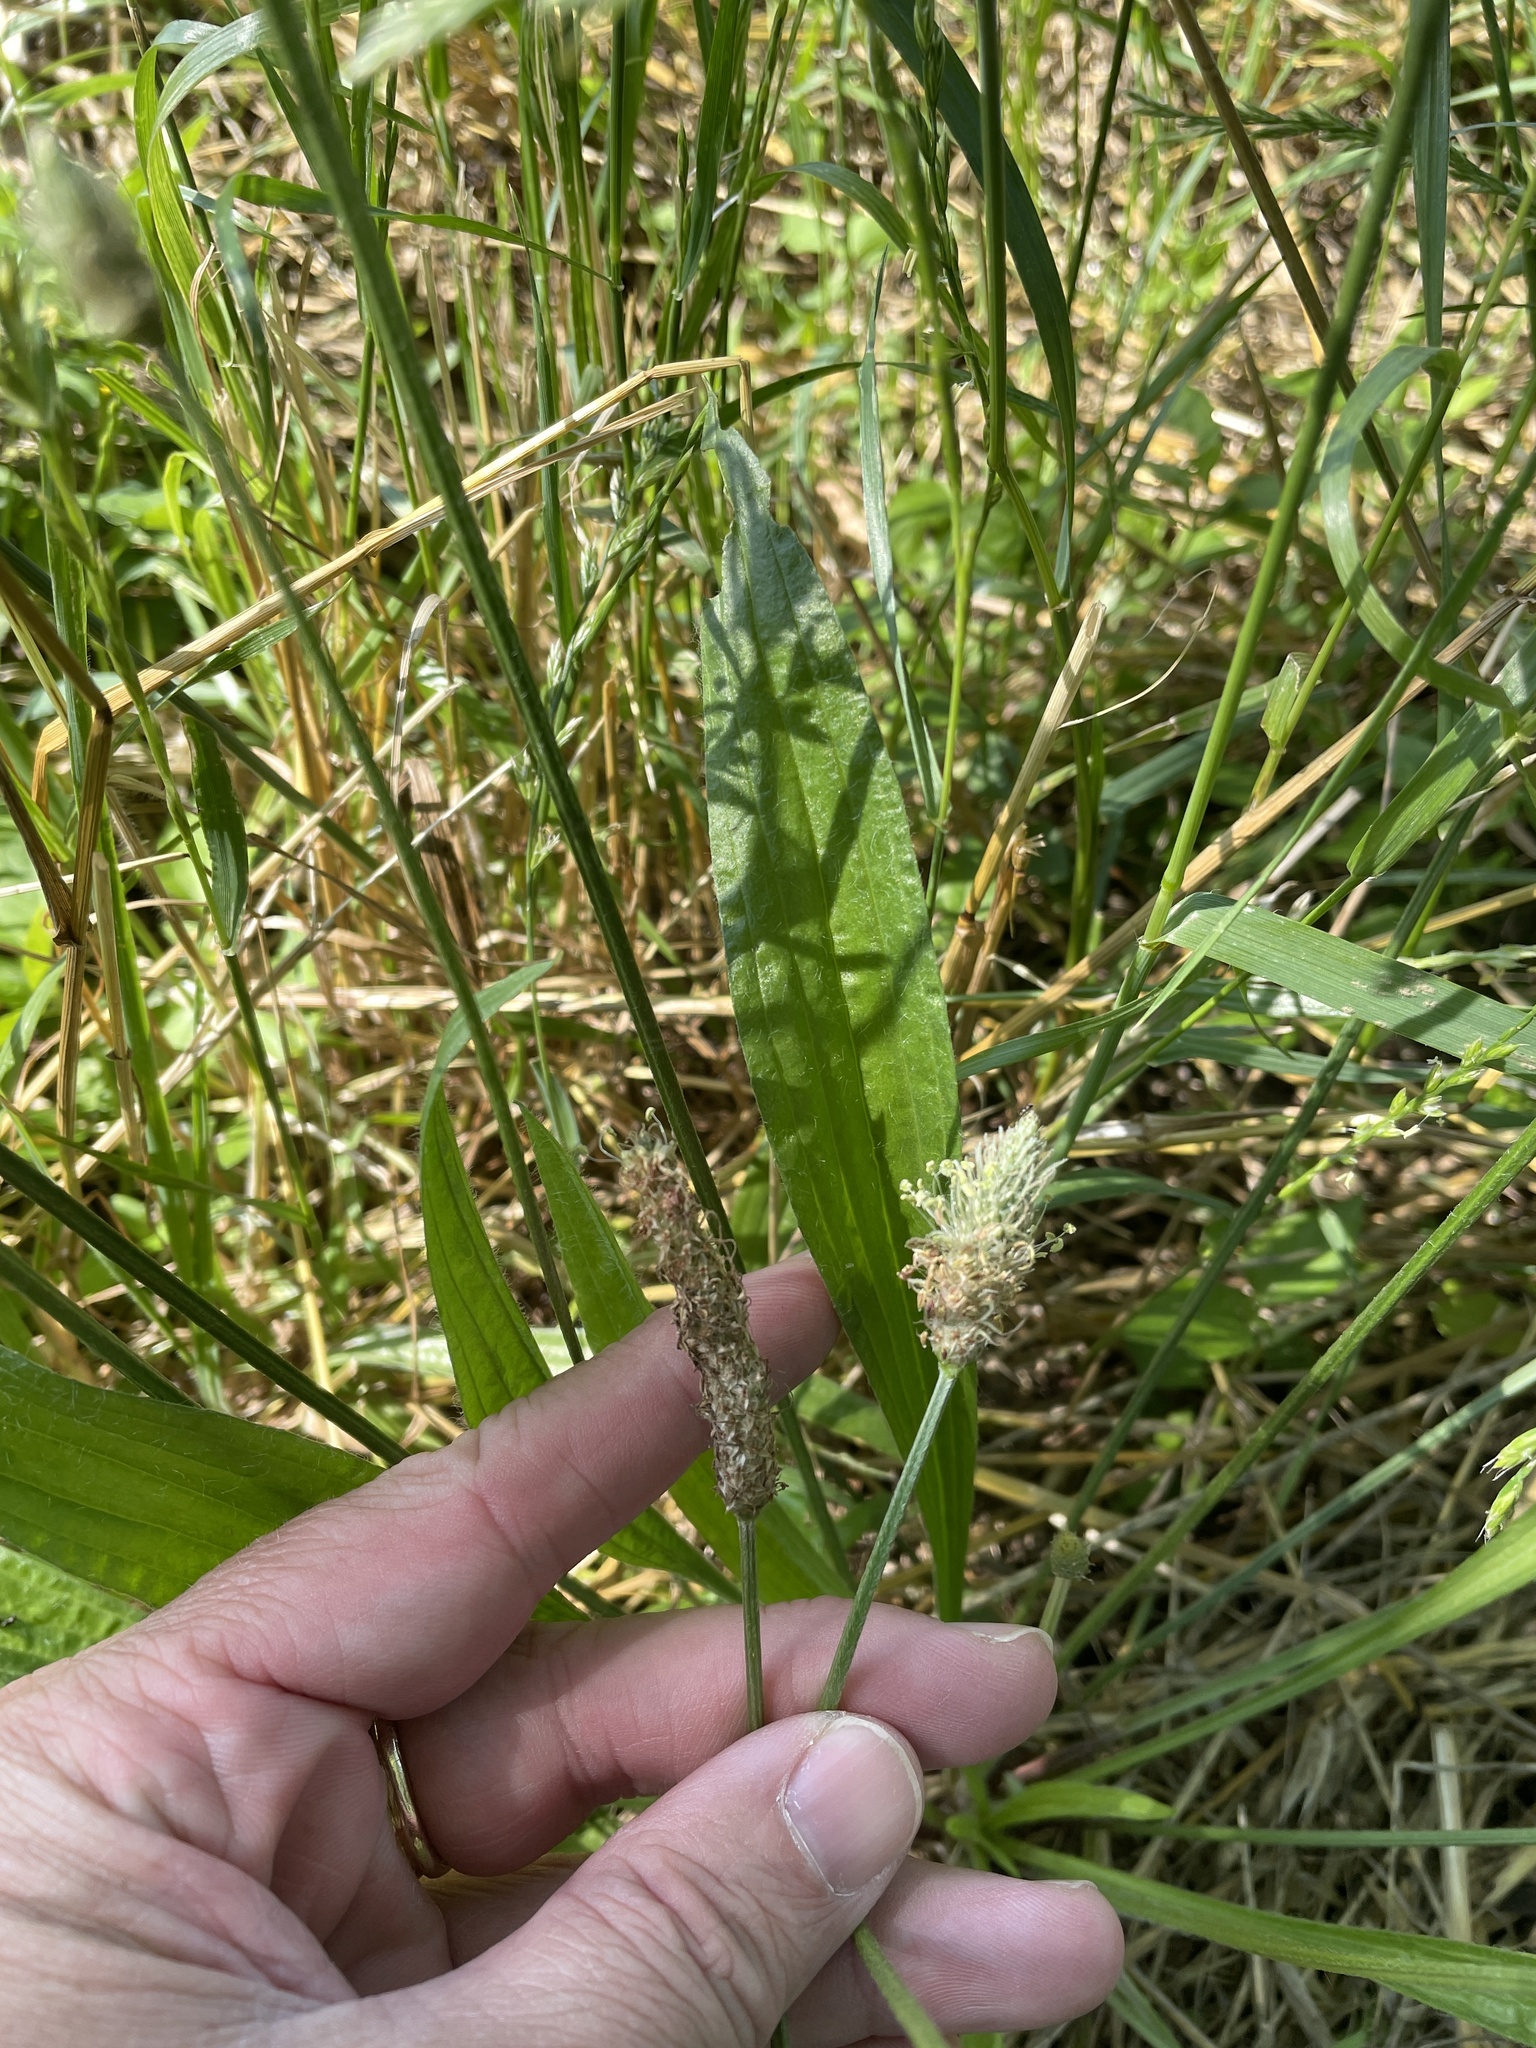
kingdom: Plantae
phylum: Tracheophyta
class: Magnoliopsida
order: Lamiales
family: Plantaginaceae
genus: Plantago
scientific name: Plantago lanceolata
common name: Ribwort plantain
